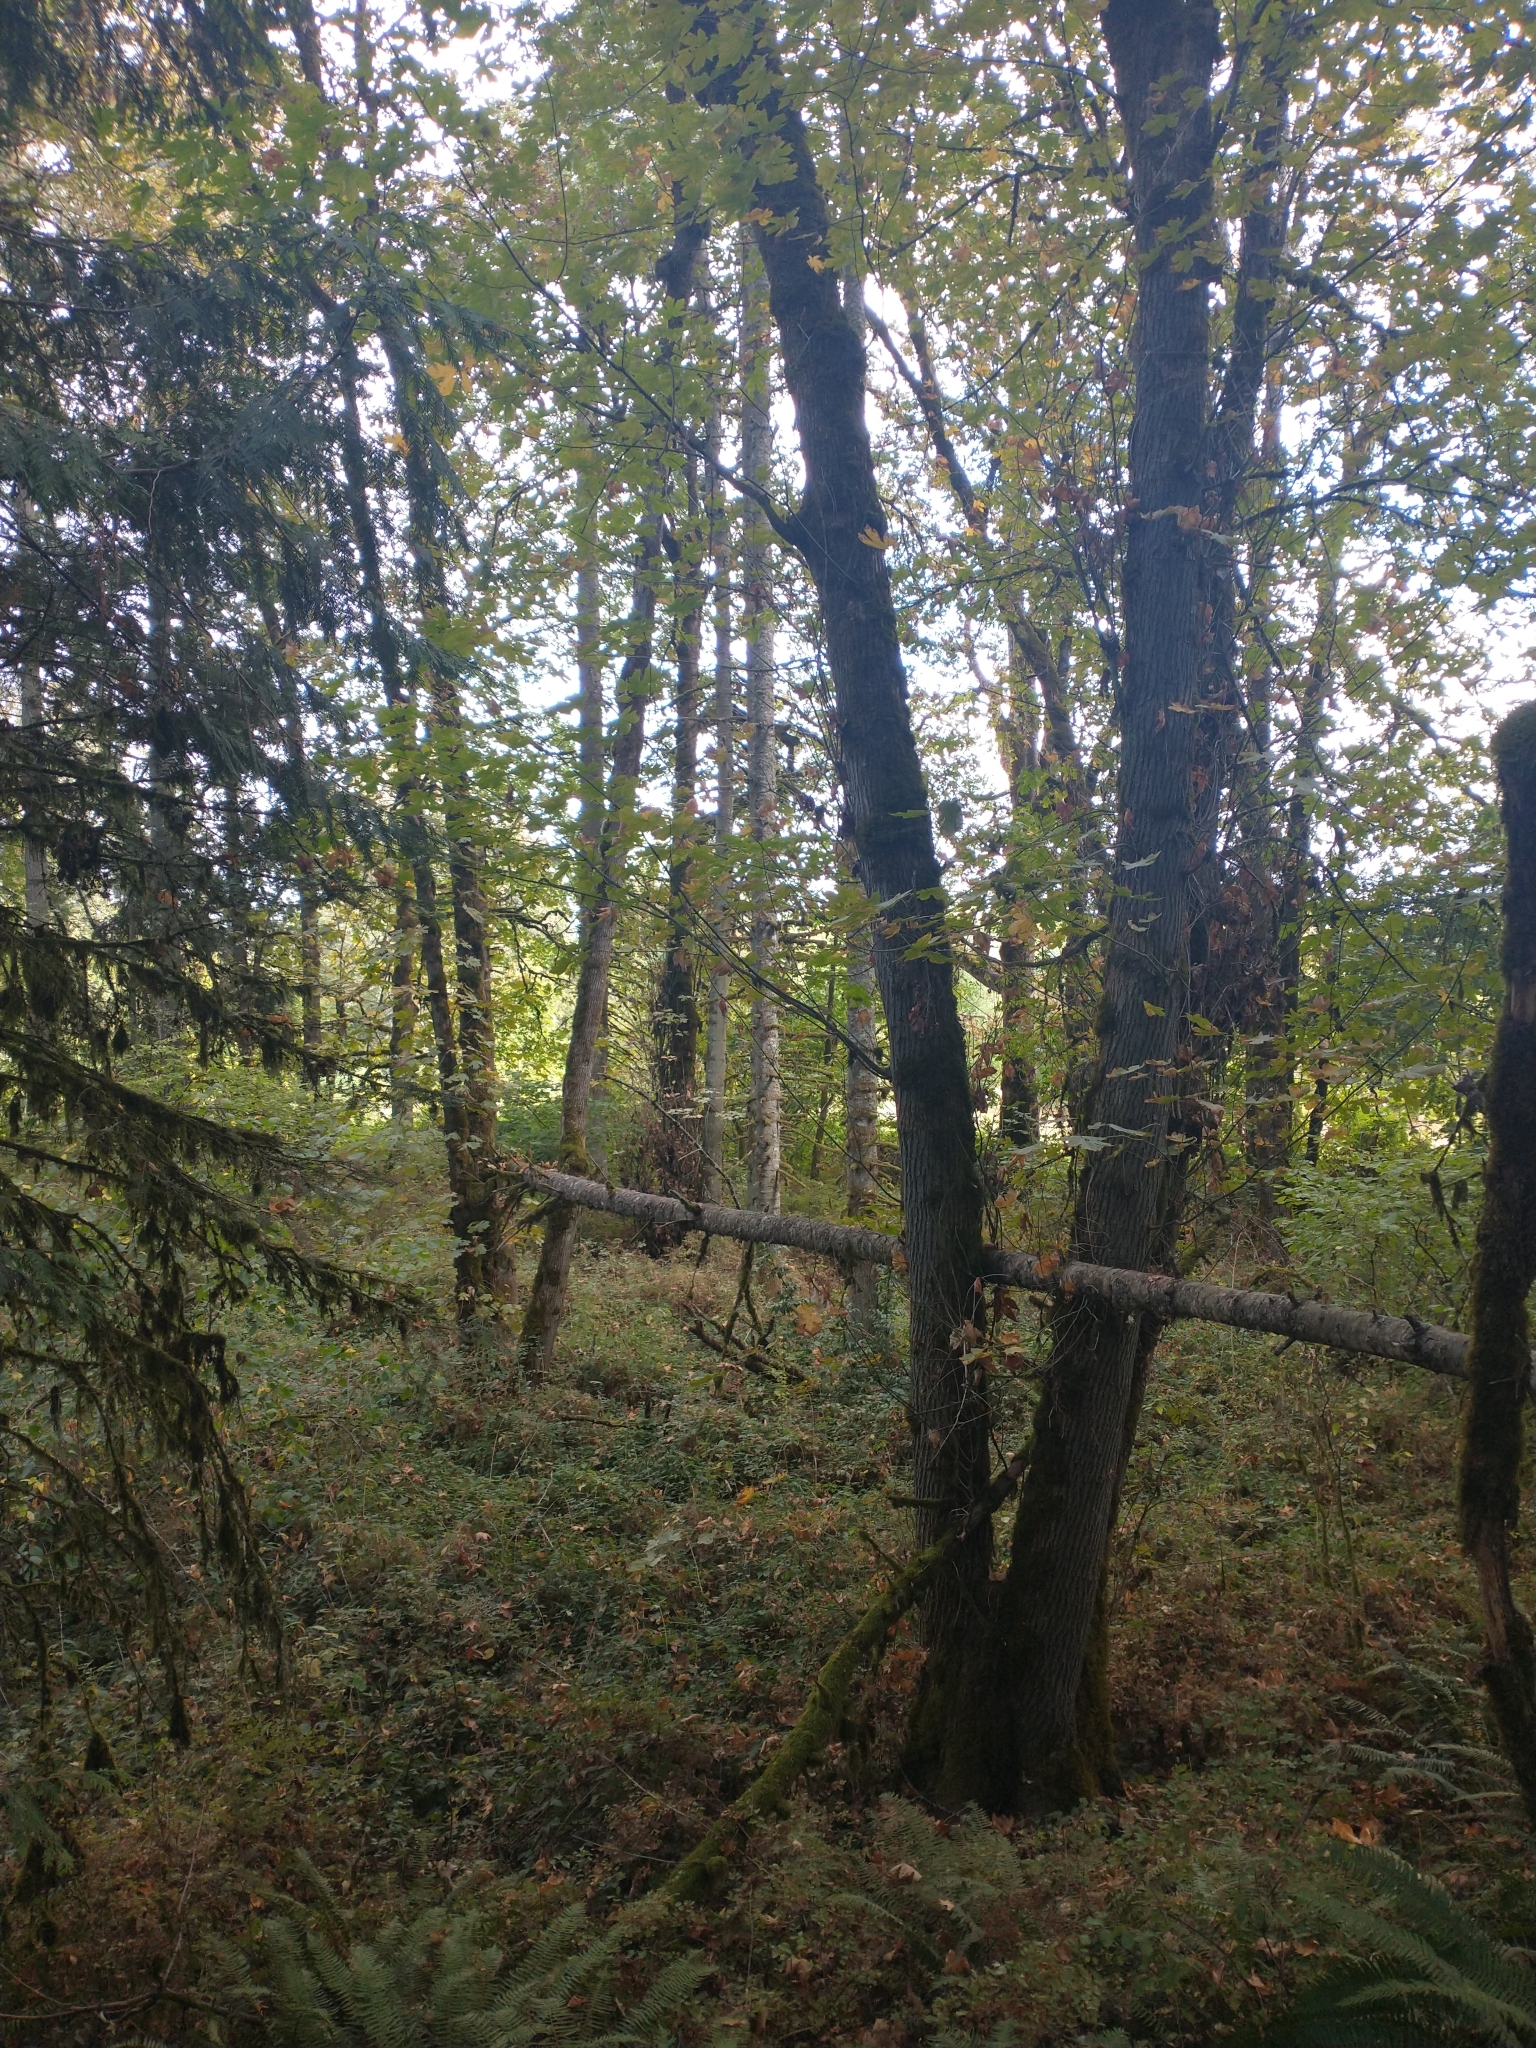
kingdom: Plantae
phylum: Tracheophyta
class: Magnoliopsida
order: Sapindales
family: Sapindaceae
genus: Acer
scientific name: Acer macrophyllum
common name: Oregon maple
